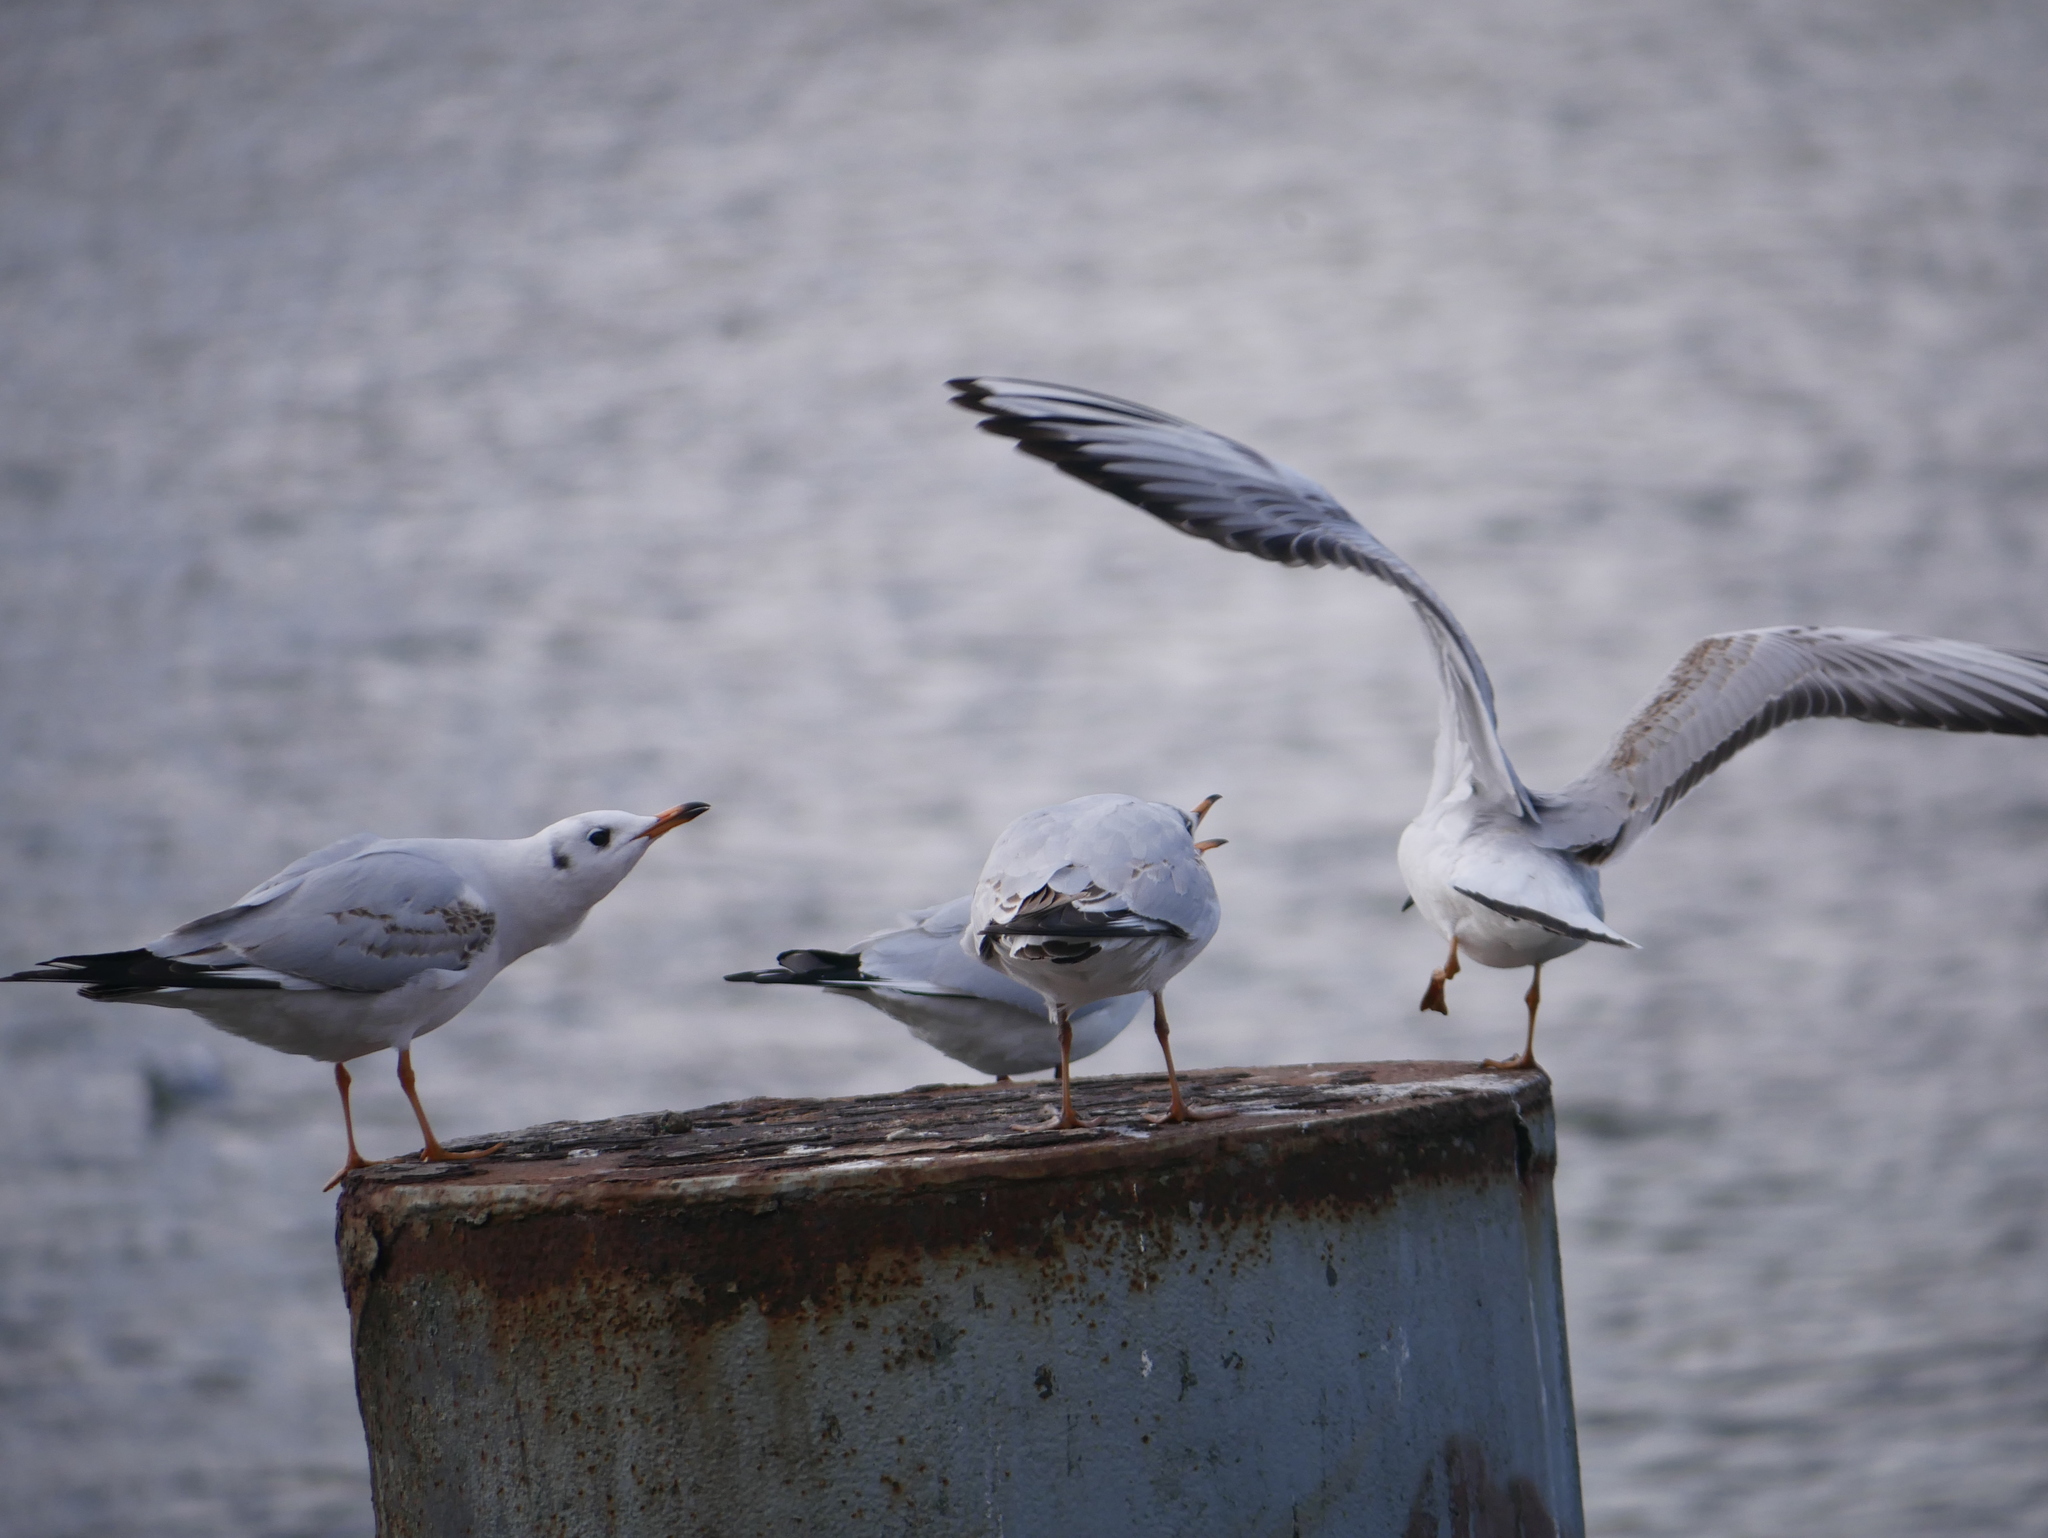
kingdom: Animalia
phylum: Chordata
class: Aves
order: Charadriiformes
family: Laridae
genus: Chroicocephalus
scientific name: Chroicocephalus ridibundus
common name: Black-headed gull
